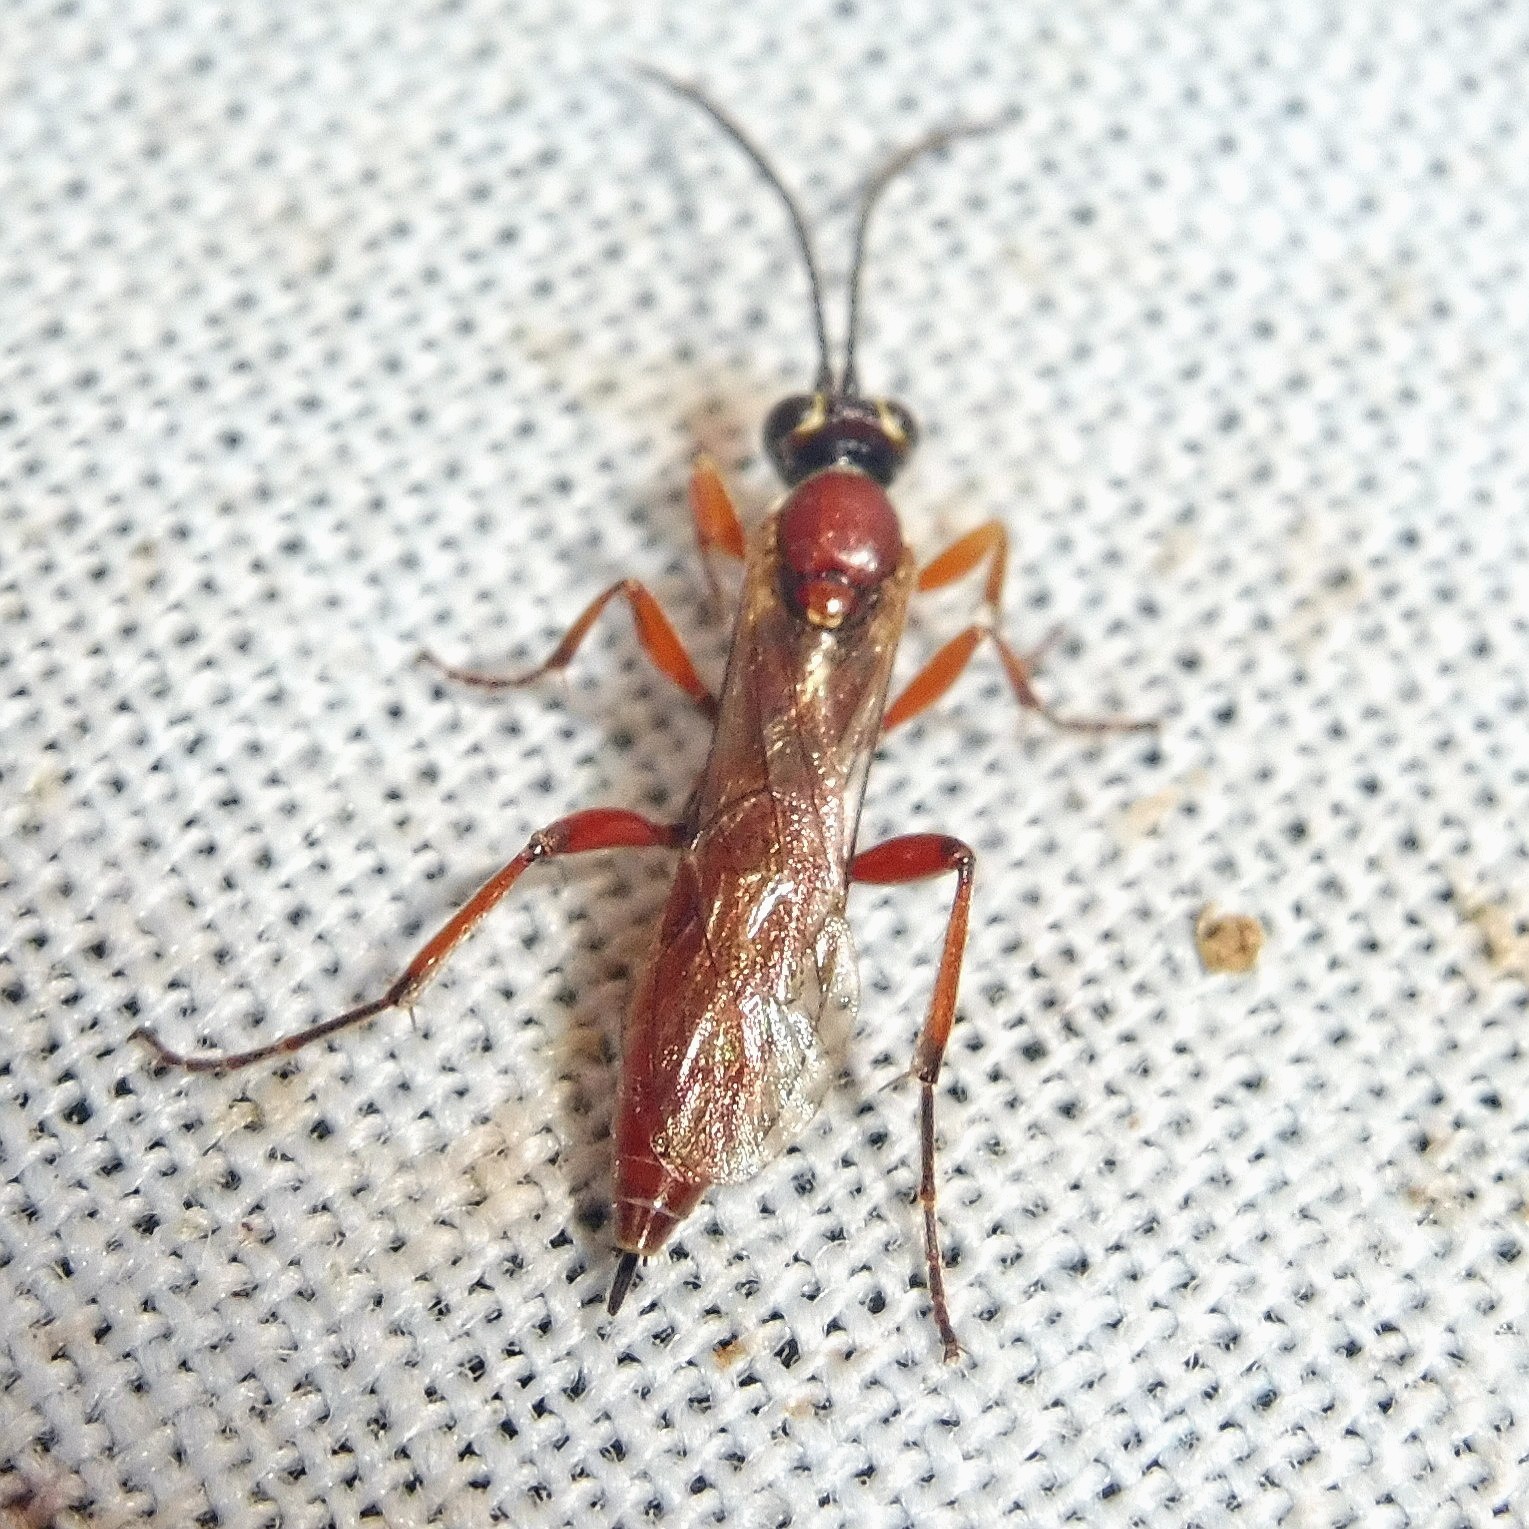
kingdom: Animalia
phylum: Arthropoda
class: Insecta
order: Hymenoptera
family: Ichneumonidae
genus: Stenaoplus
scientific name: Stenaoplus pictus
